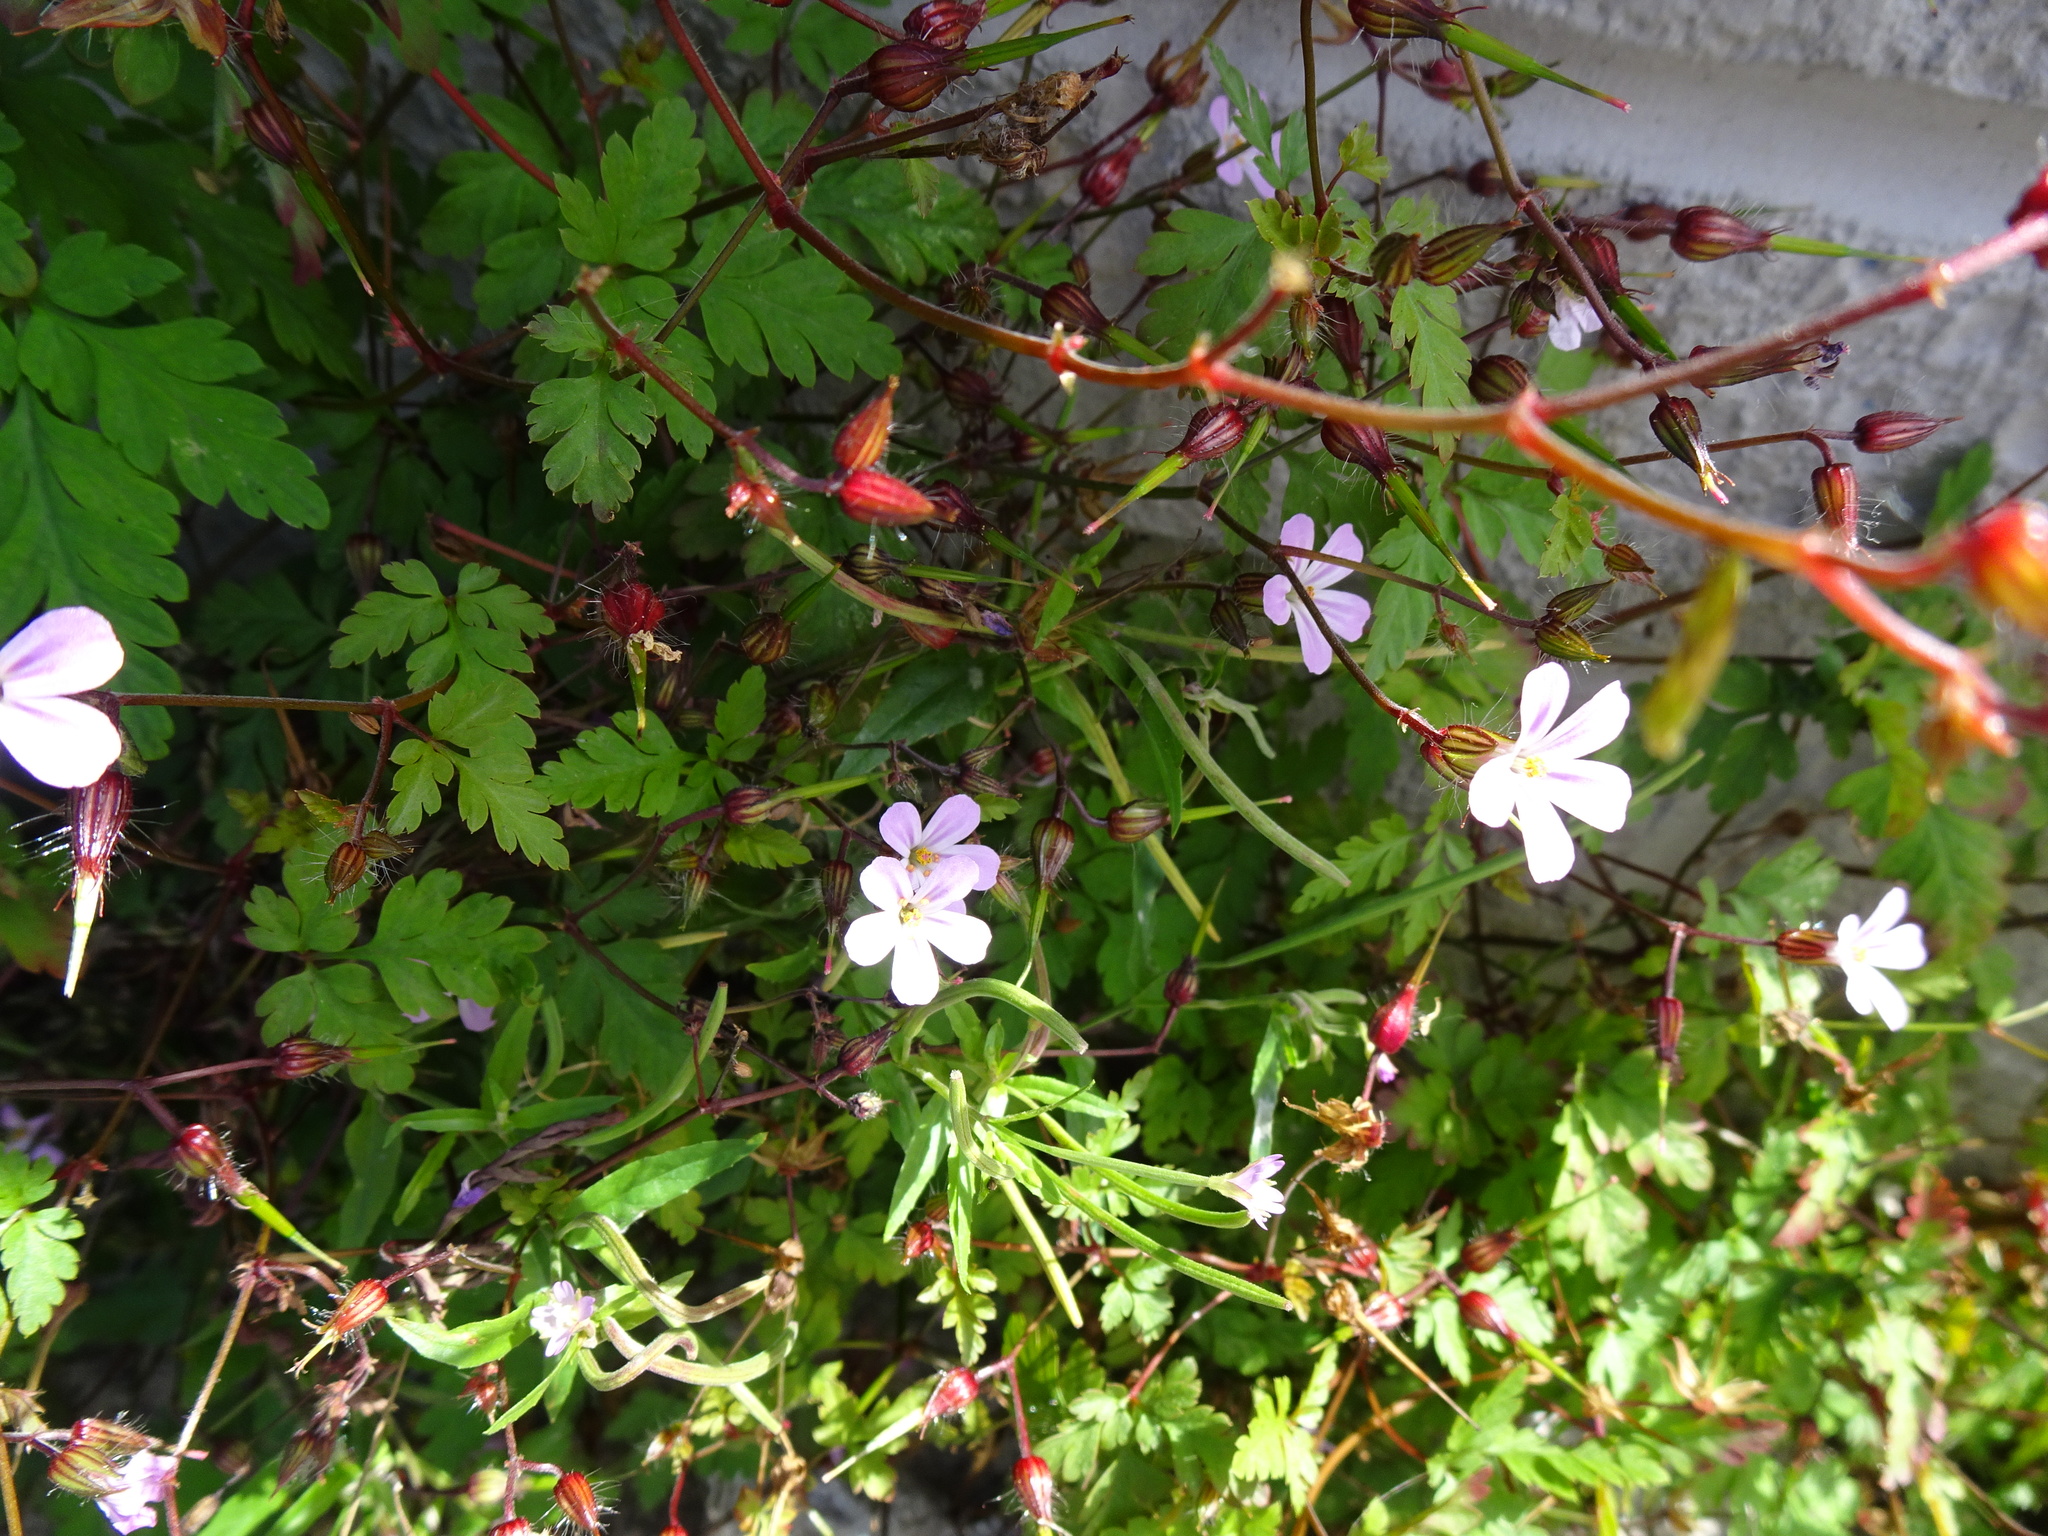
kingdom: Plantae
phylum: Tracheophyta
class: Magnoliopsida
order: Geraniales
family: Geraniaceae
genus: Geranium
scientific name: Geranium robertianum
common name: Herb-robert
